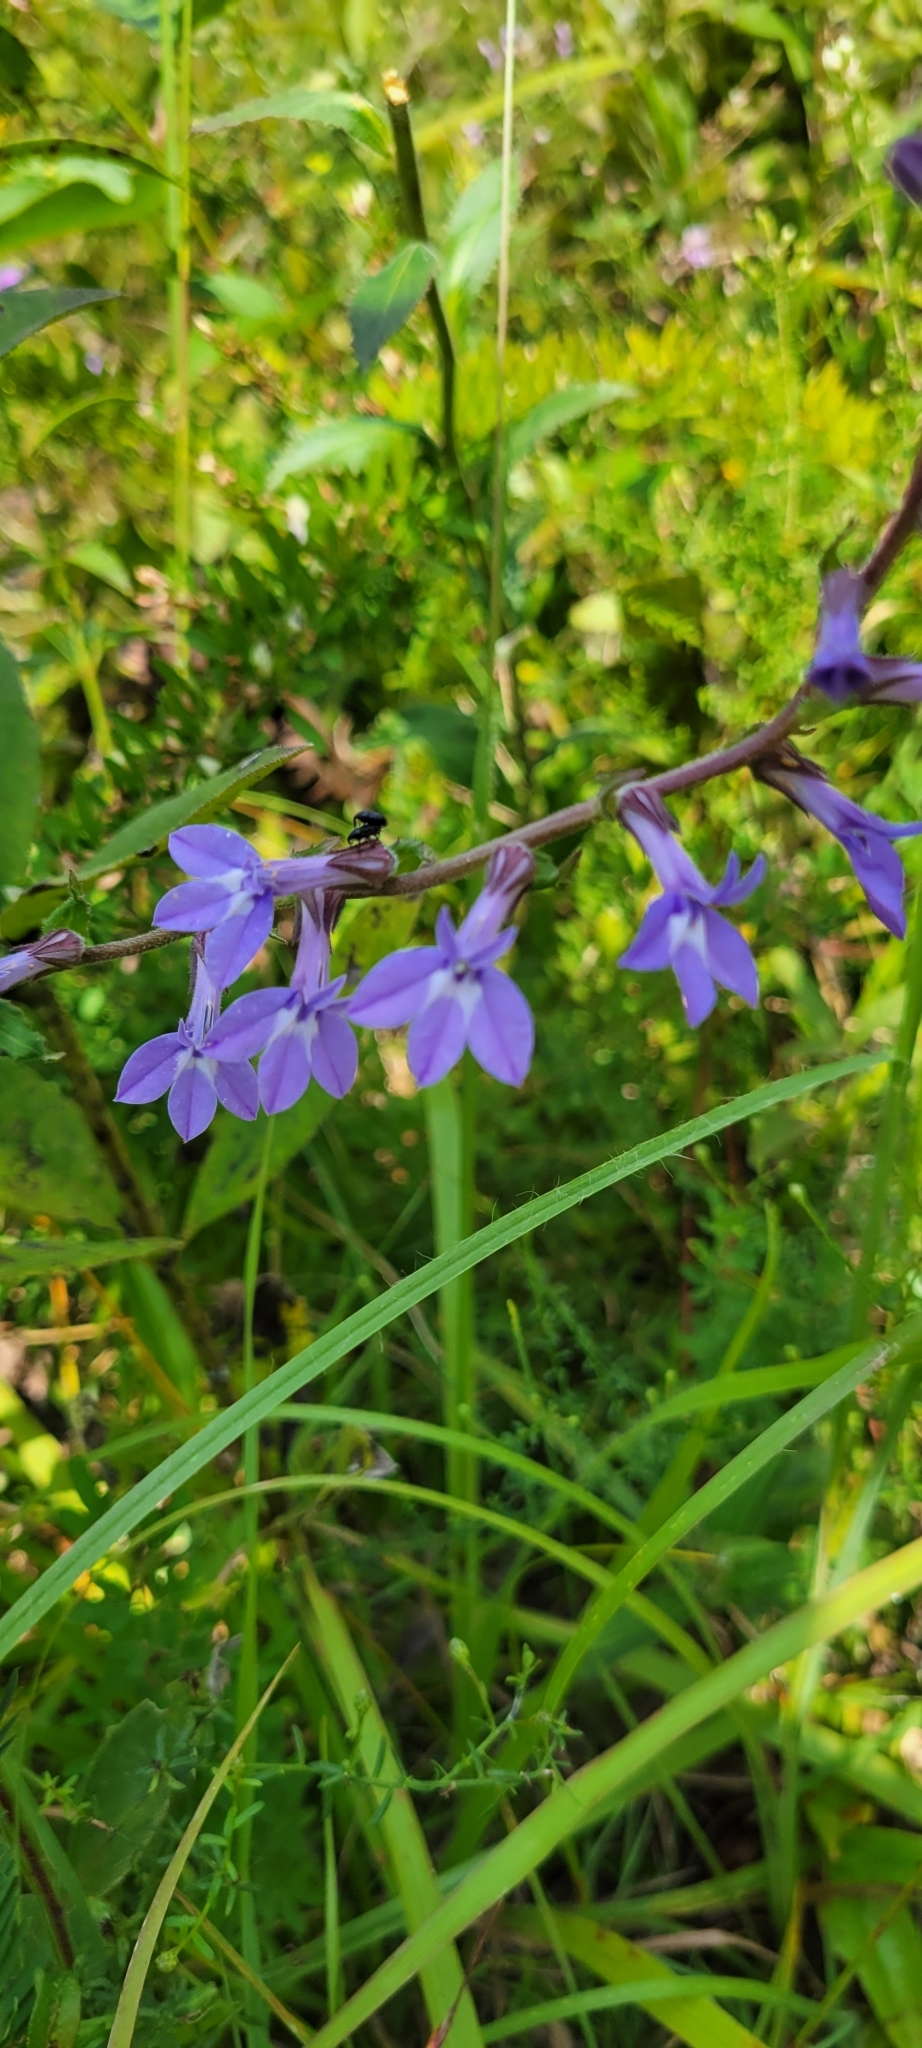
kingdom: Plantae
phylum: Tracheophyta
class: Magnoliopsida
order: Asterales
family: Campanulaceae
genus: Lobelia
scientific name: Lobelia puberula
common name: Purple dewdrop
